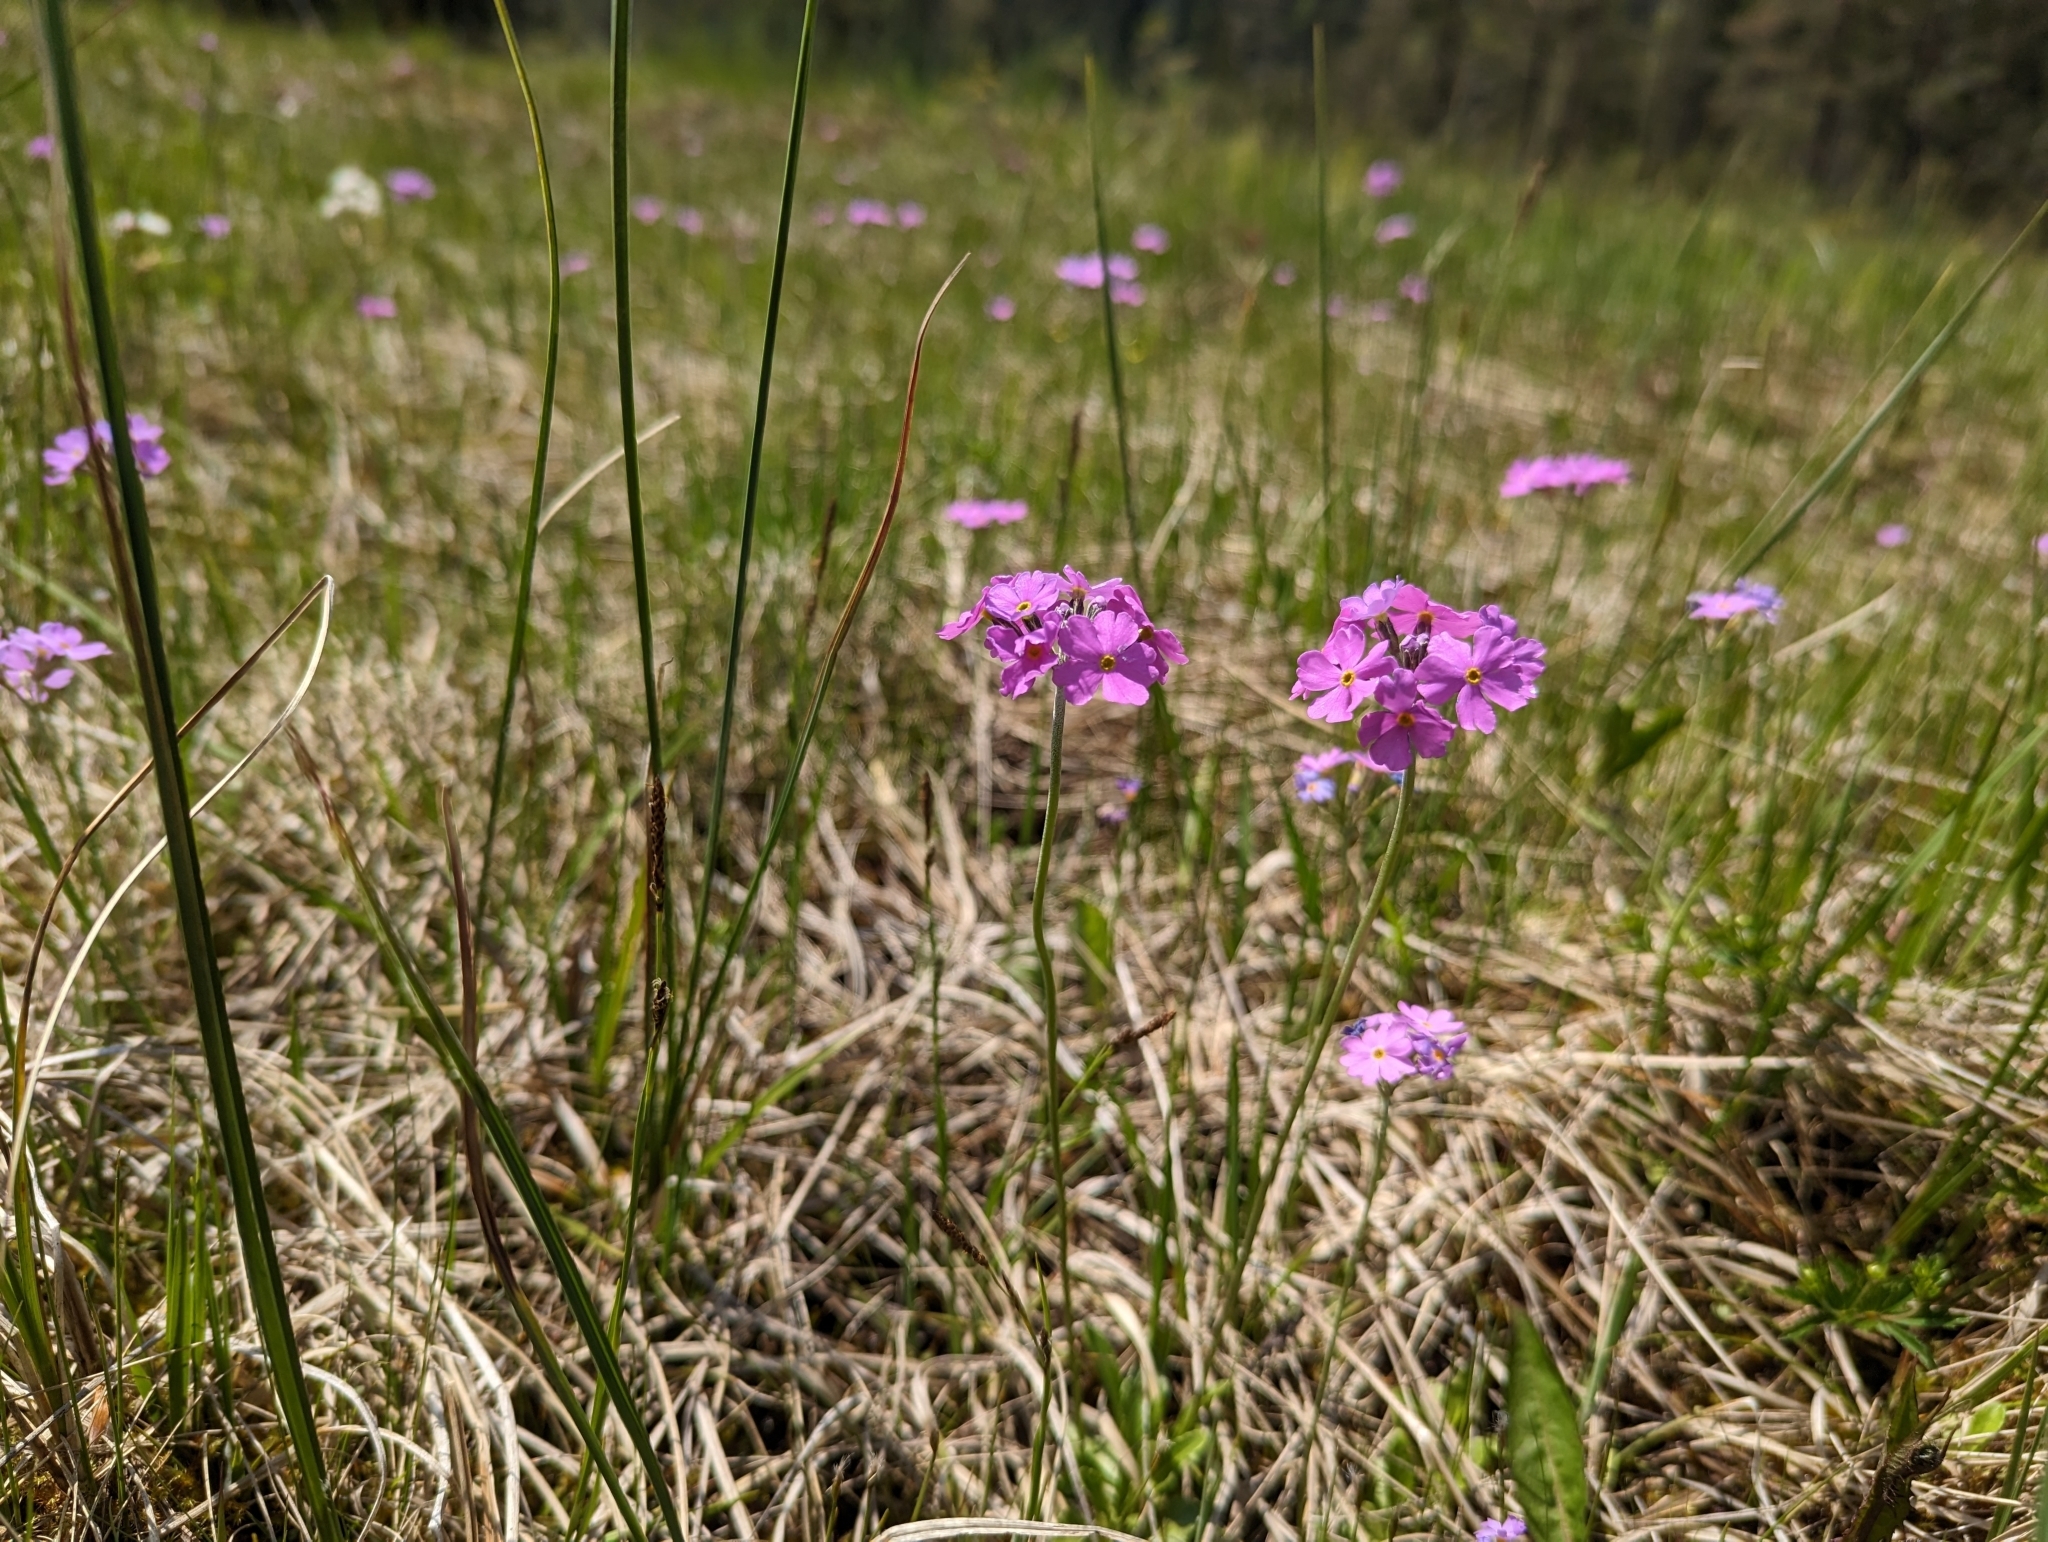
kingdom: Plantae
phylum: Tracheophyta
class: Magnoliopsida
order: Ericales
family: Primulaceae
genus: Primula
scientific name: Primula farinosa
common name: Bird's-eye primrose
